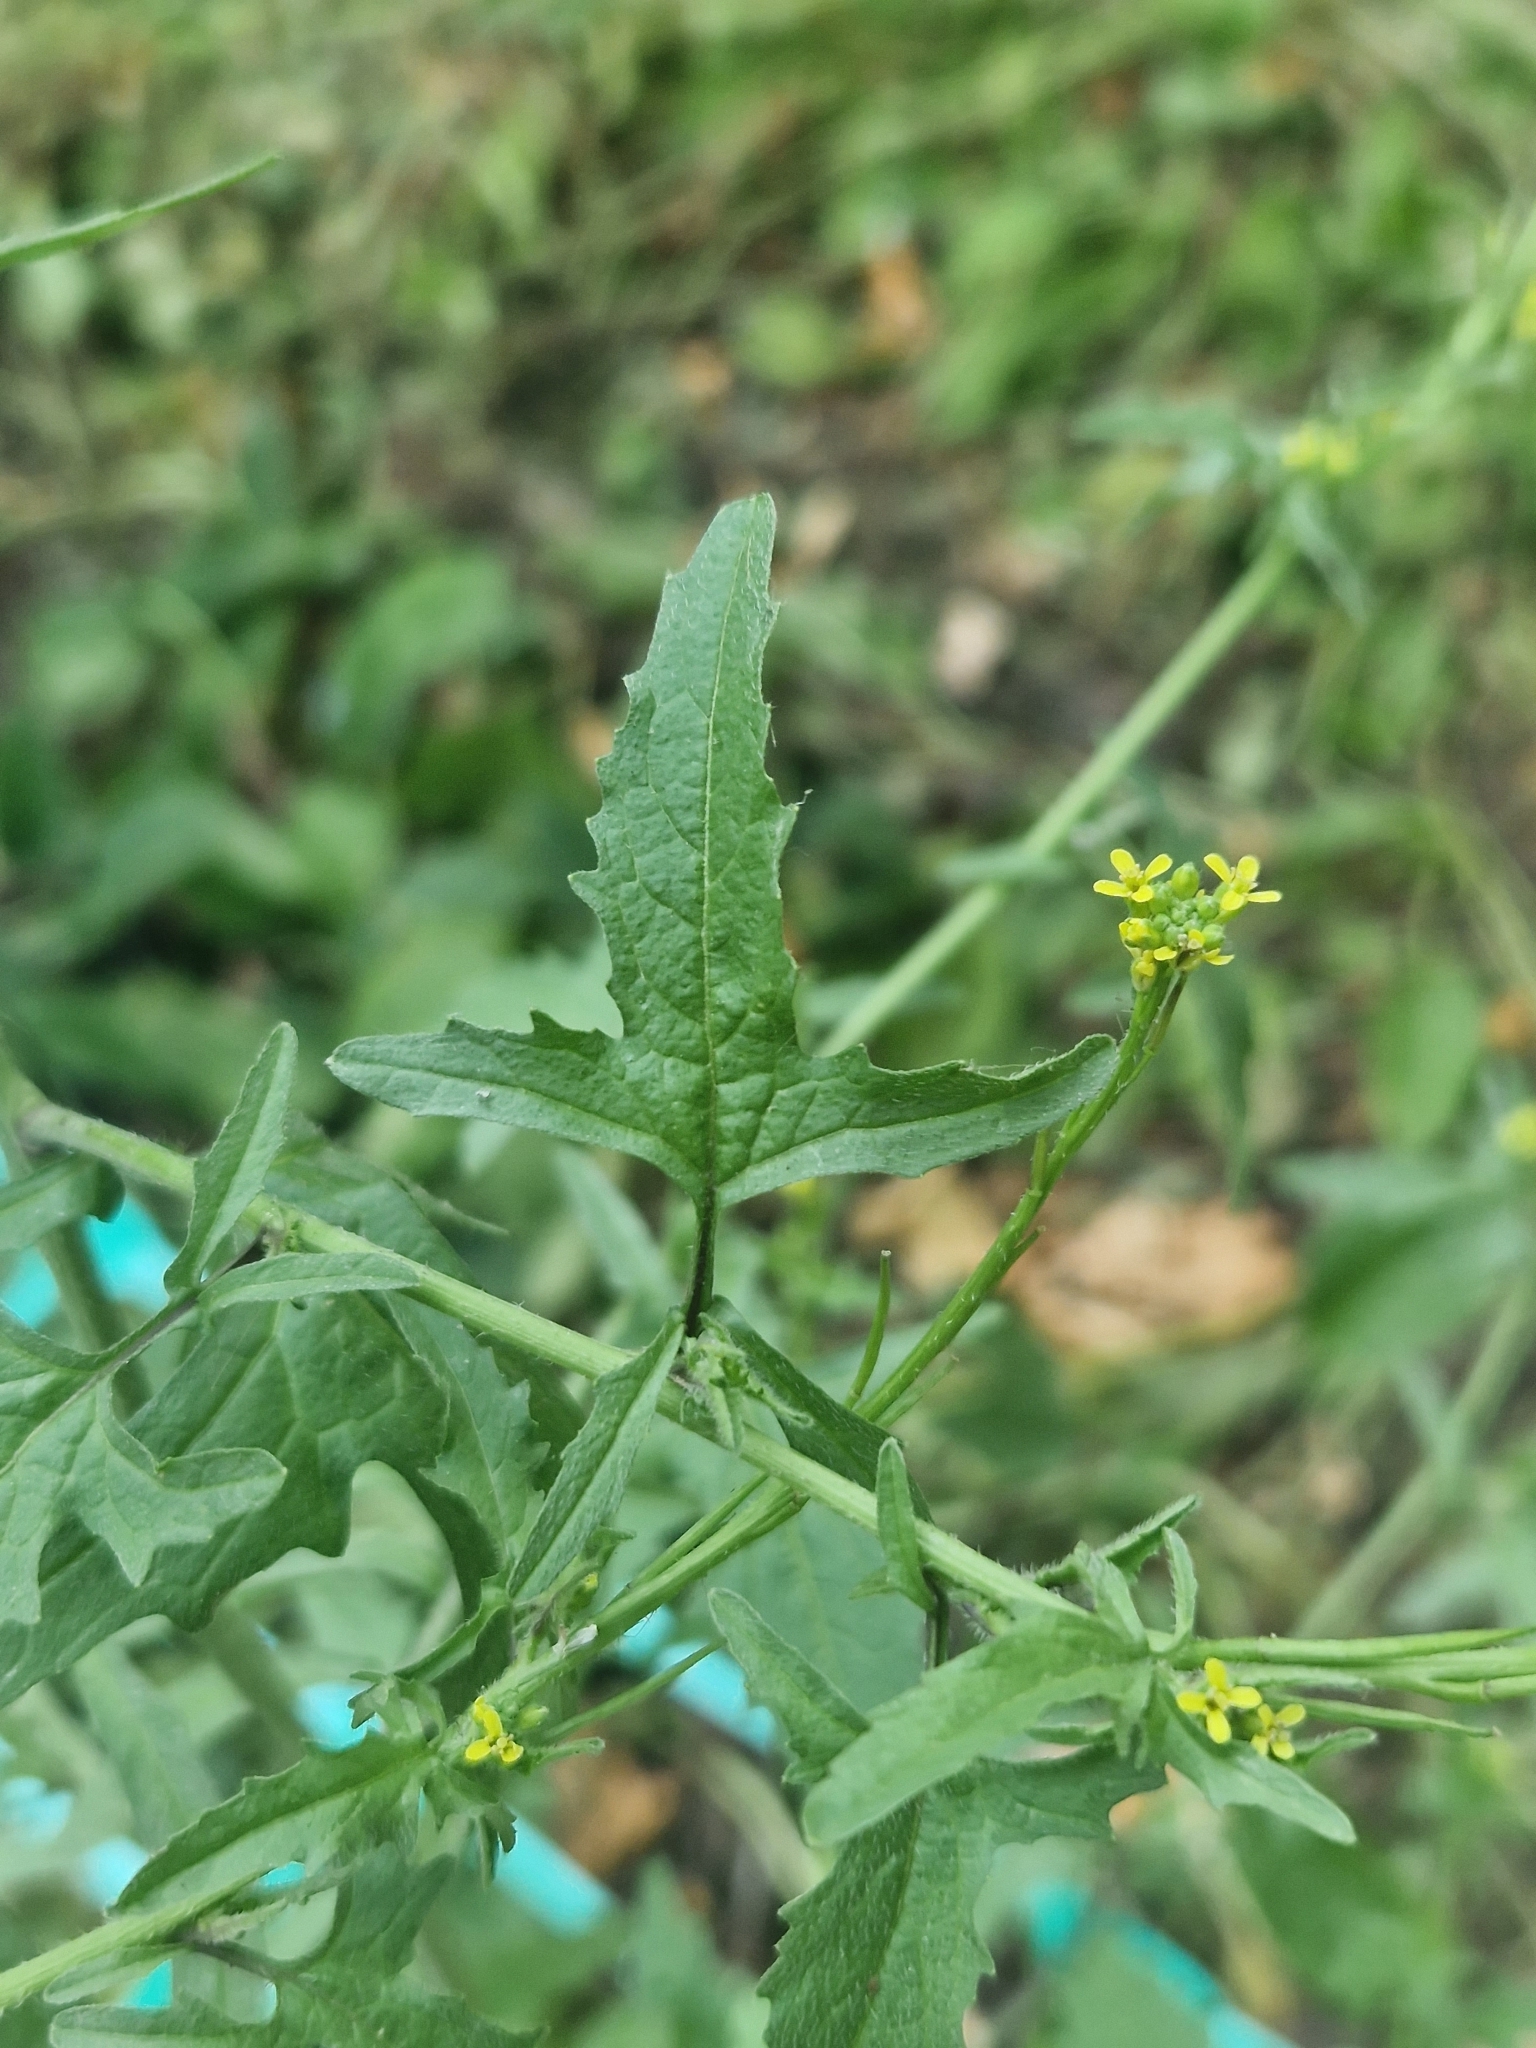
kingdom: Plantae
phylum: Tracheophyta
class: Magnoliopsida
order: Brassicales
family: Brassicaceae
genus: Sisymbrium
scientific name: Sisymbrium officinale
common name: Hedge mustard
